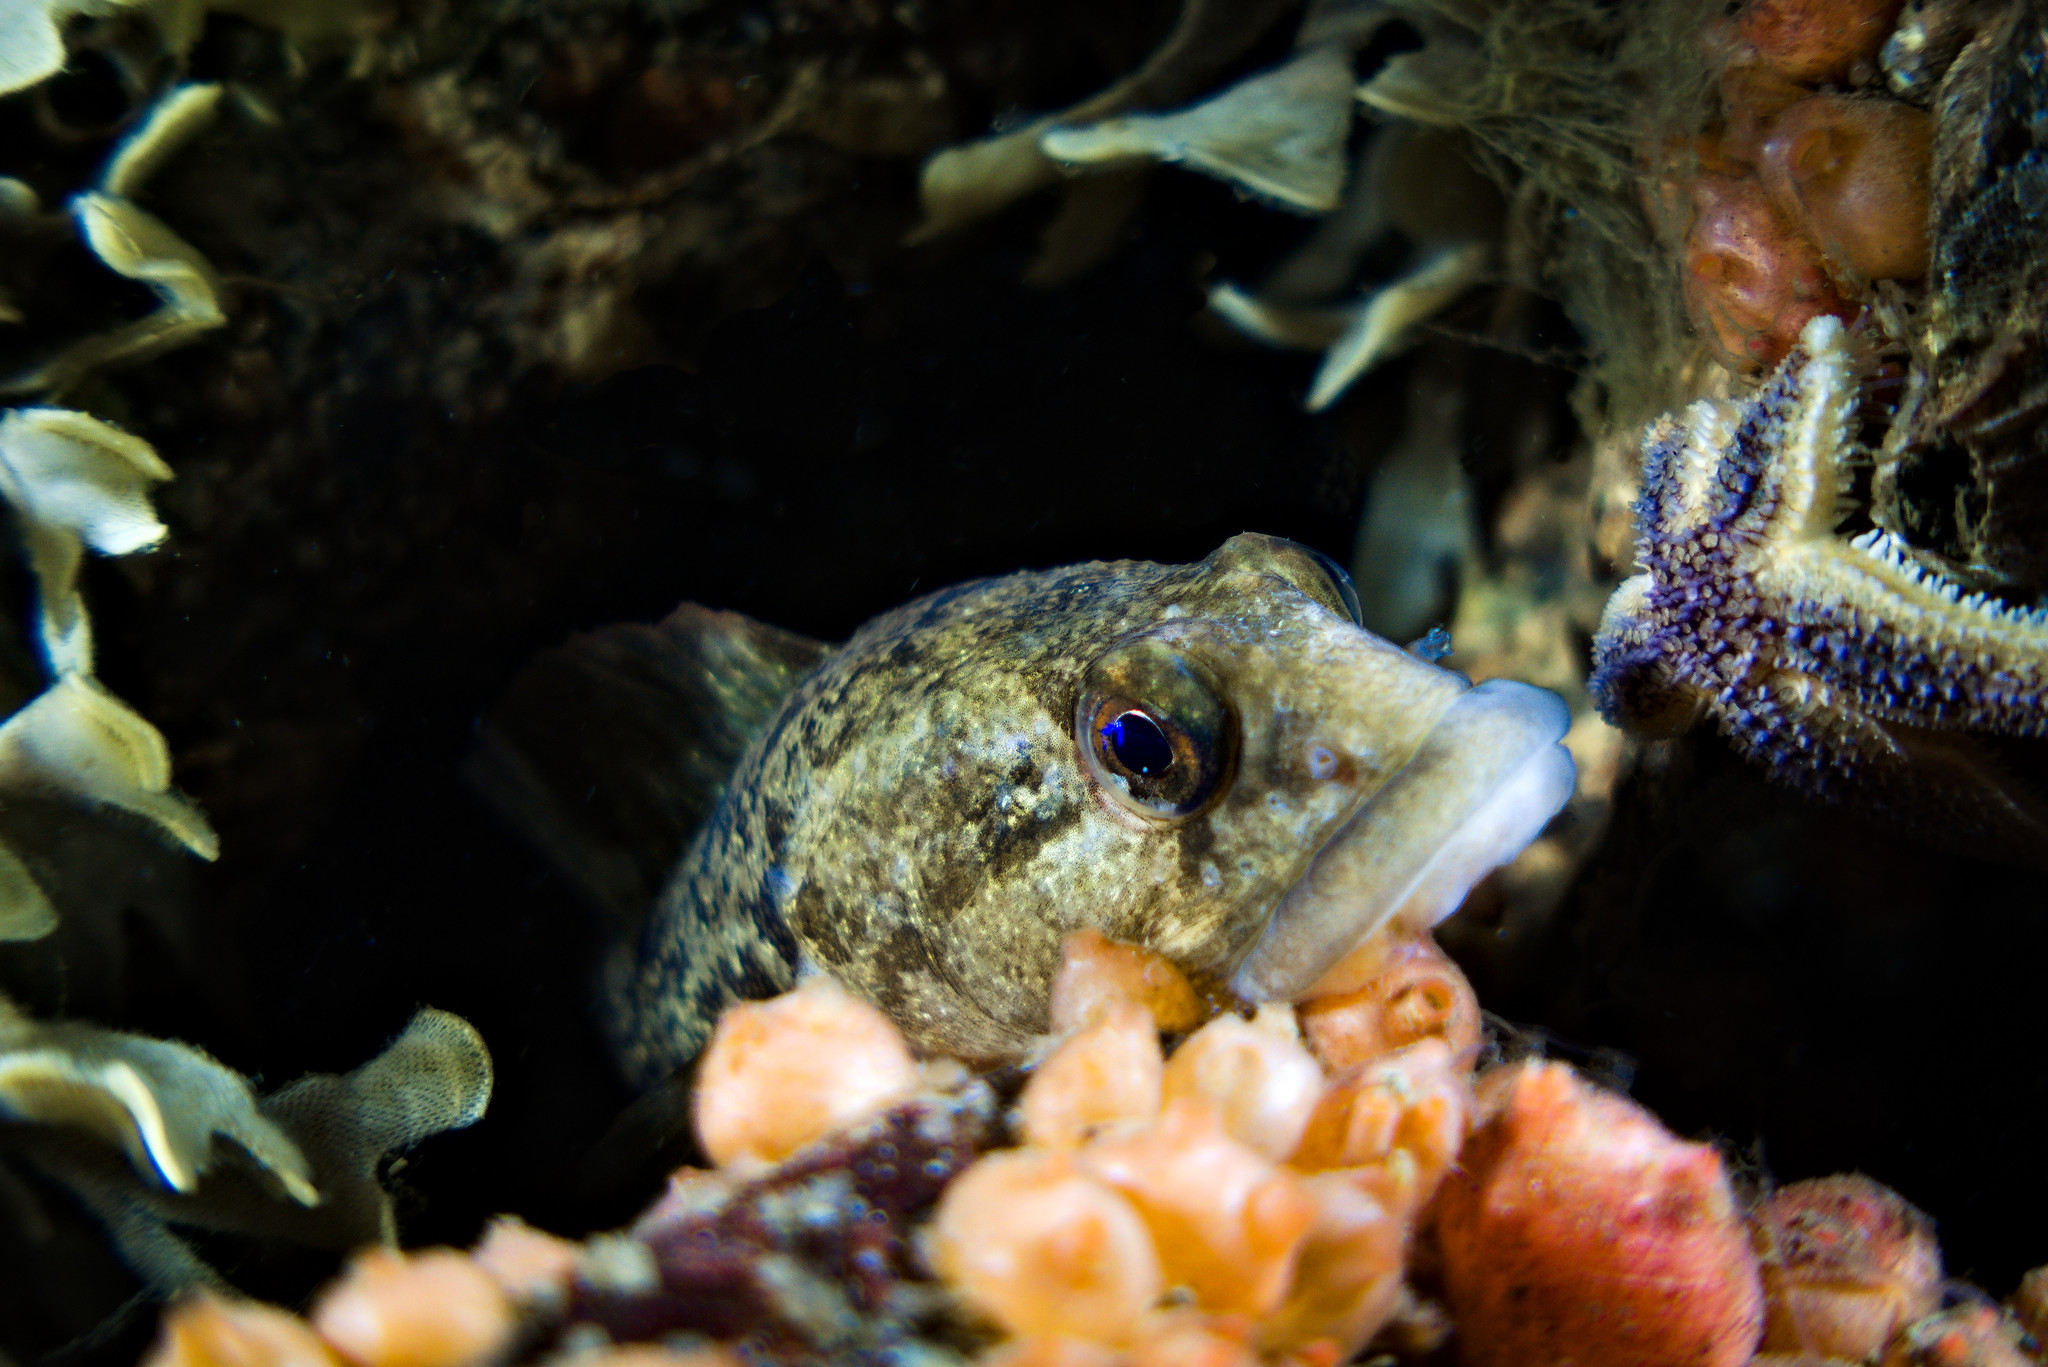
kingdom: Animalia
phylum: Chordata
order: Perciformes
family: Zoarcidae
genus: Zoarces
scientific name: Zoarces viviparus
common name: Viviparous blenny
